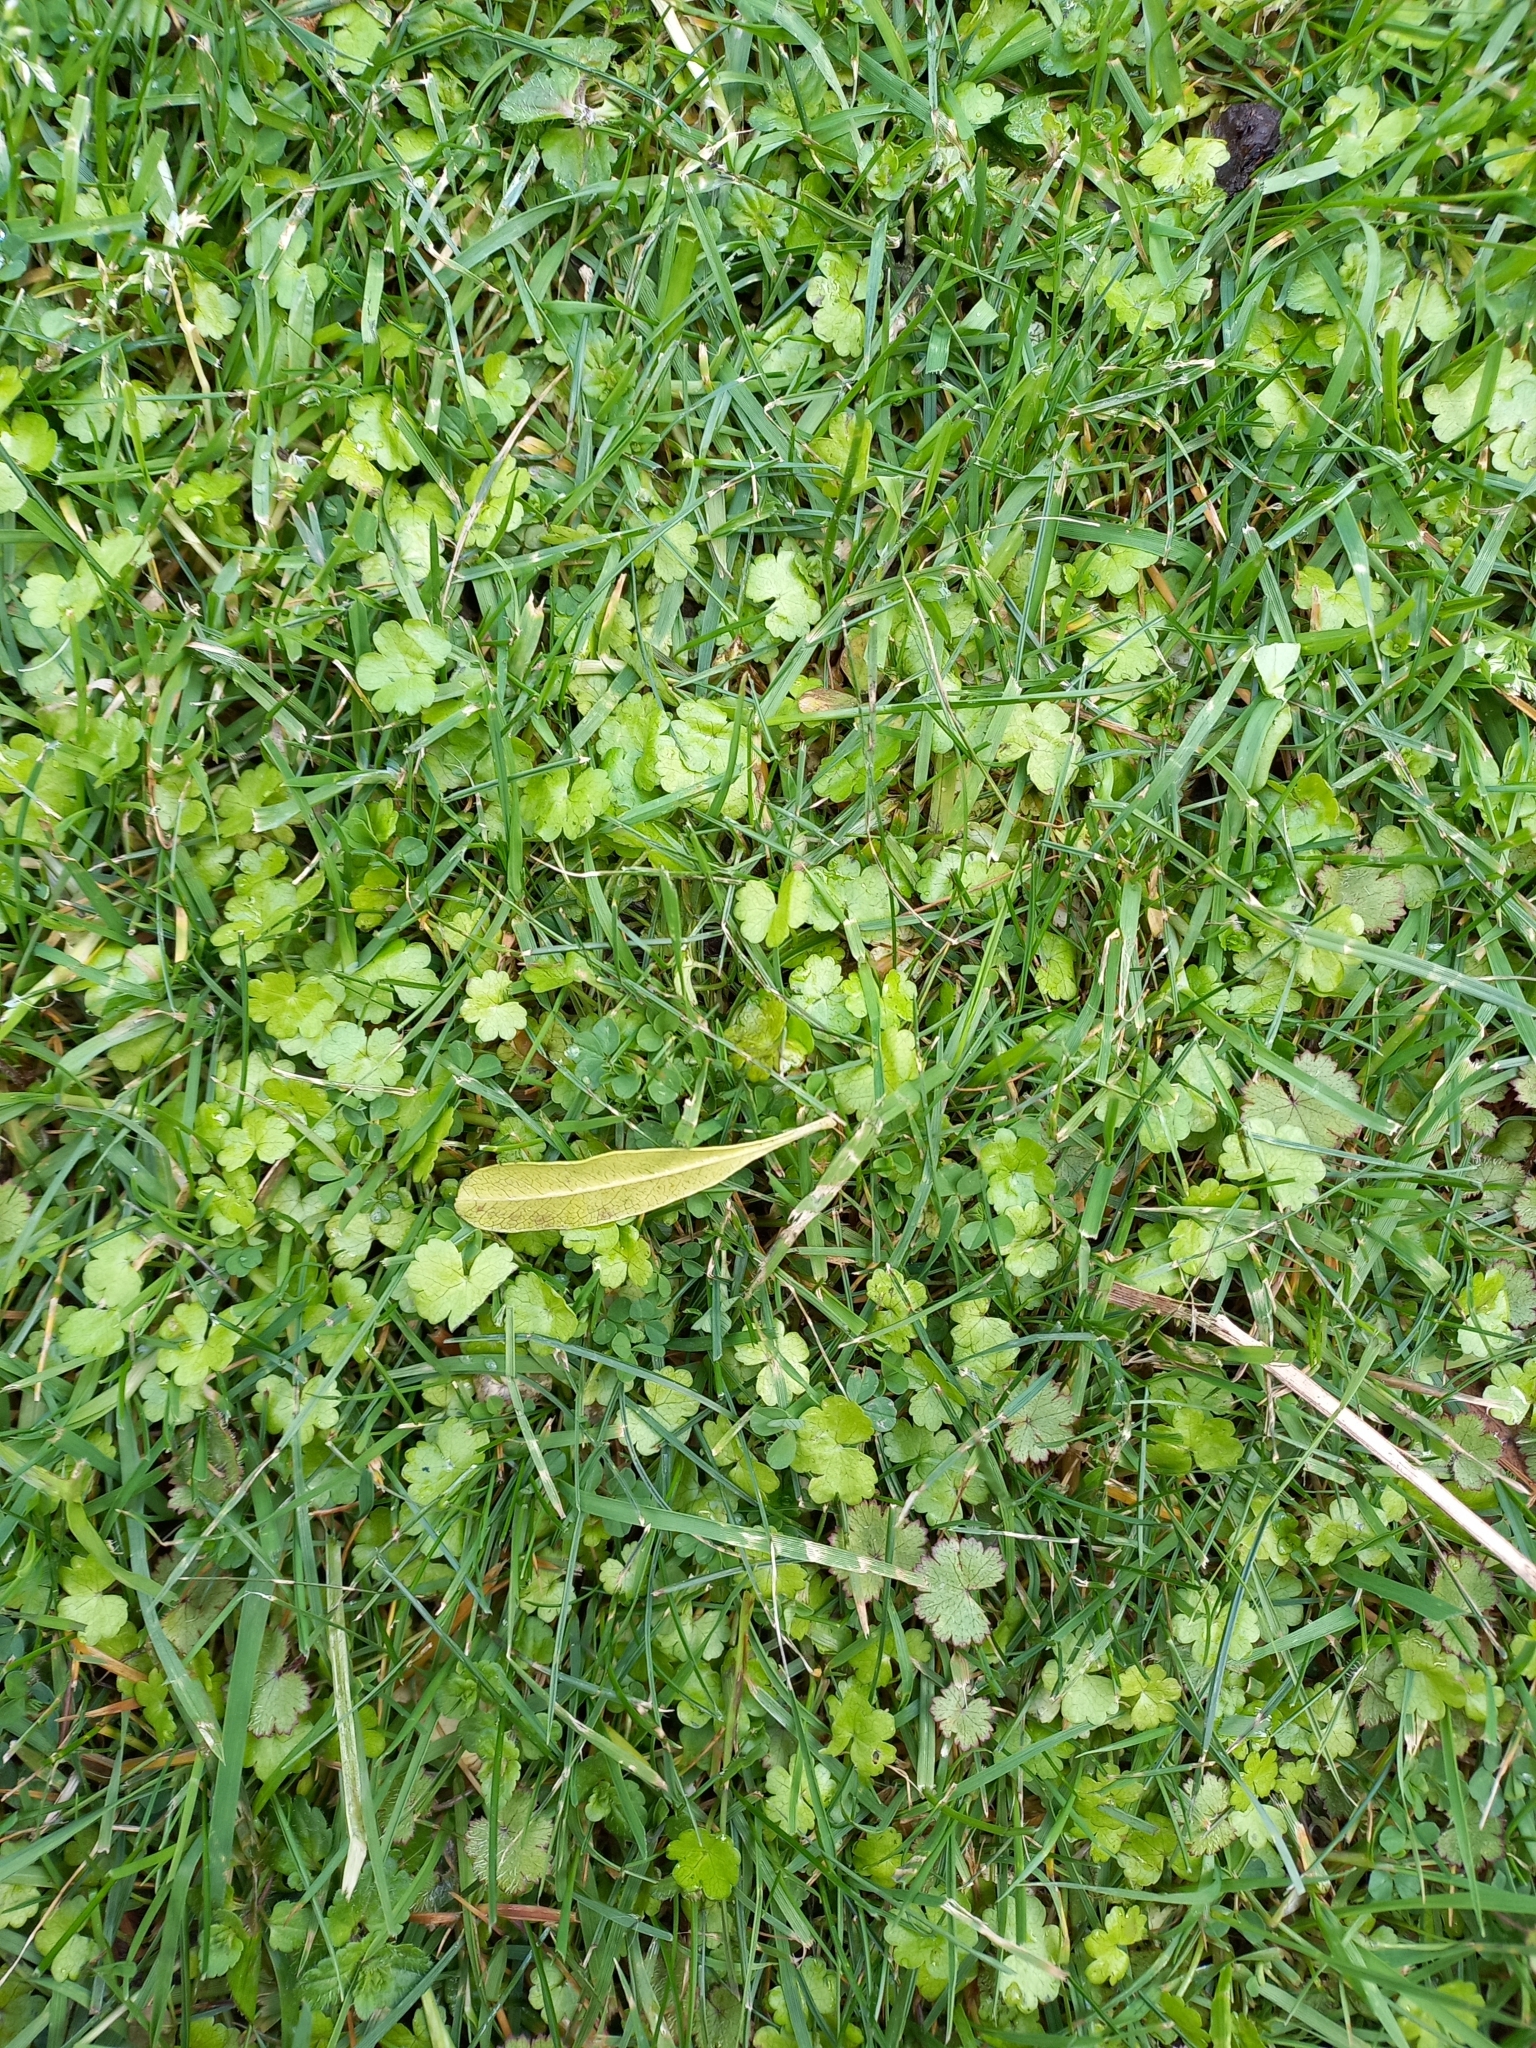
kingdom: Plantae
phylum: Tracheophyta
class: Magnoliopsida
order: Apiales
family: Araliaceae
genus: Hydrocotyle
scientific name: Hydrocotyle heteromeria
